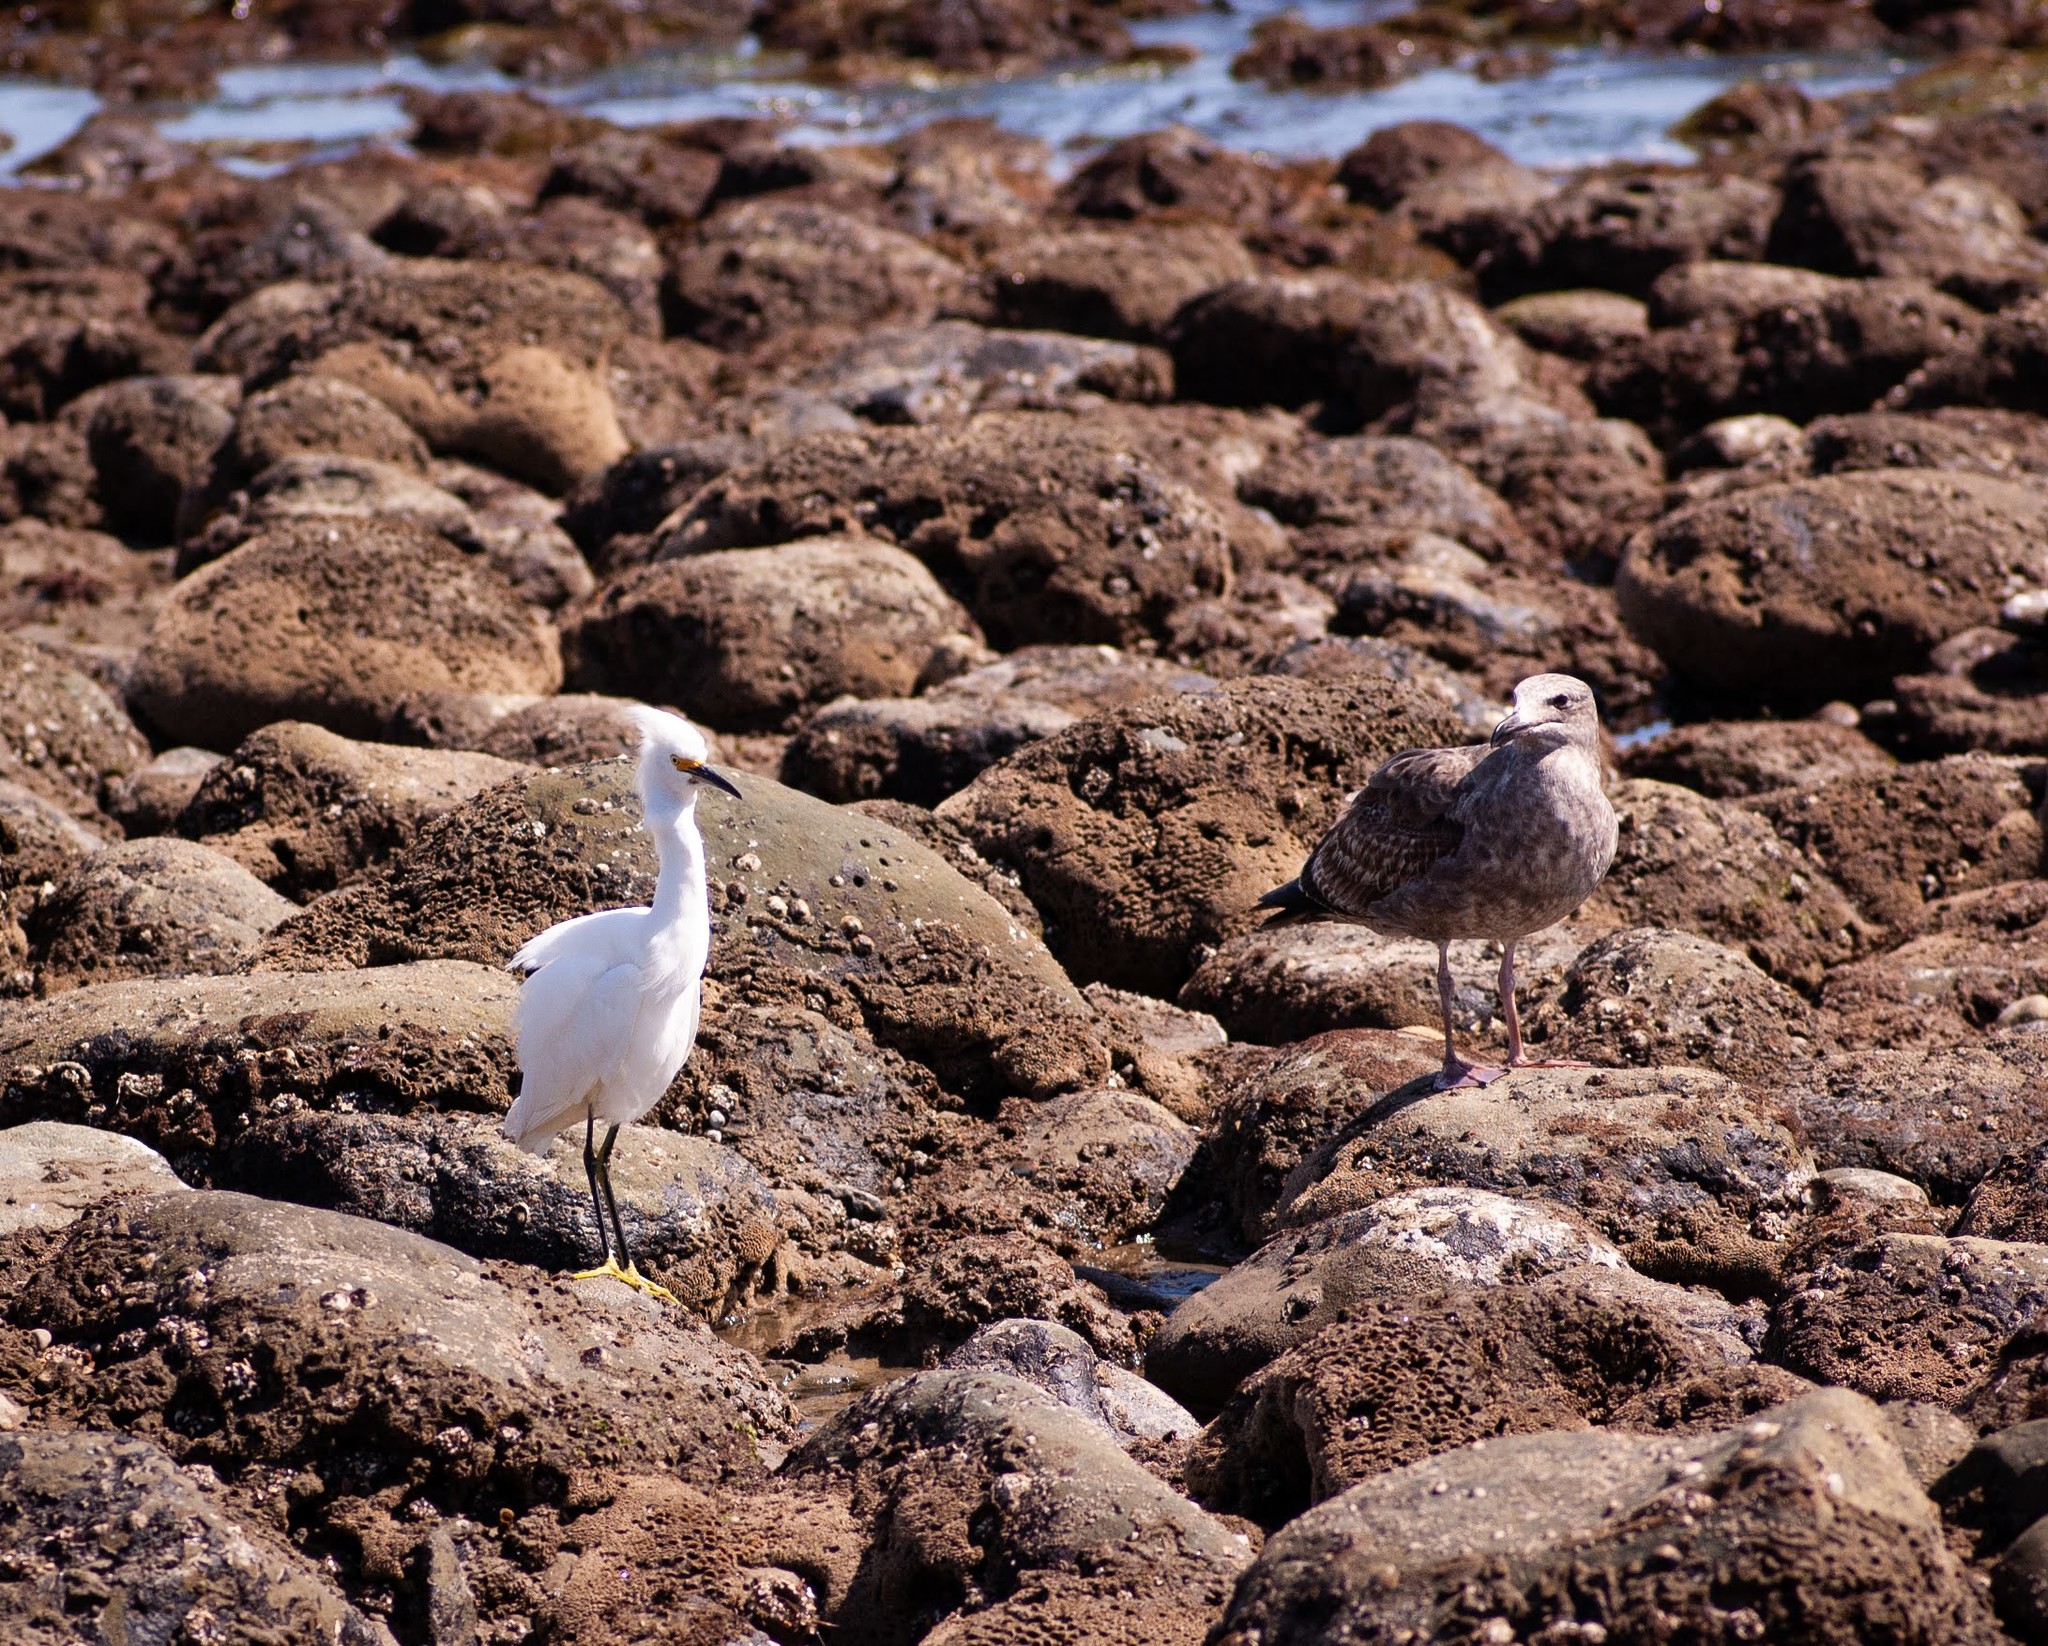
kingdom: Animalia
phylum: Chordata
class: Aves
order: Charadriiformes
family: Laridae
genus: Larus
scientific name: Larus occidentalis
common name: Western gull
